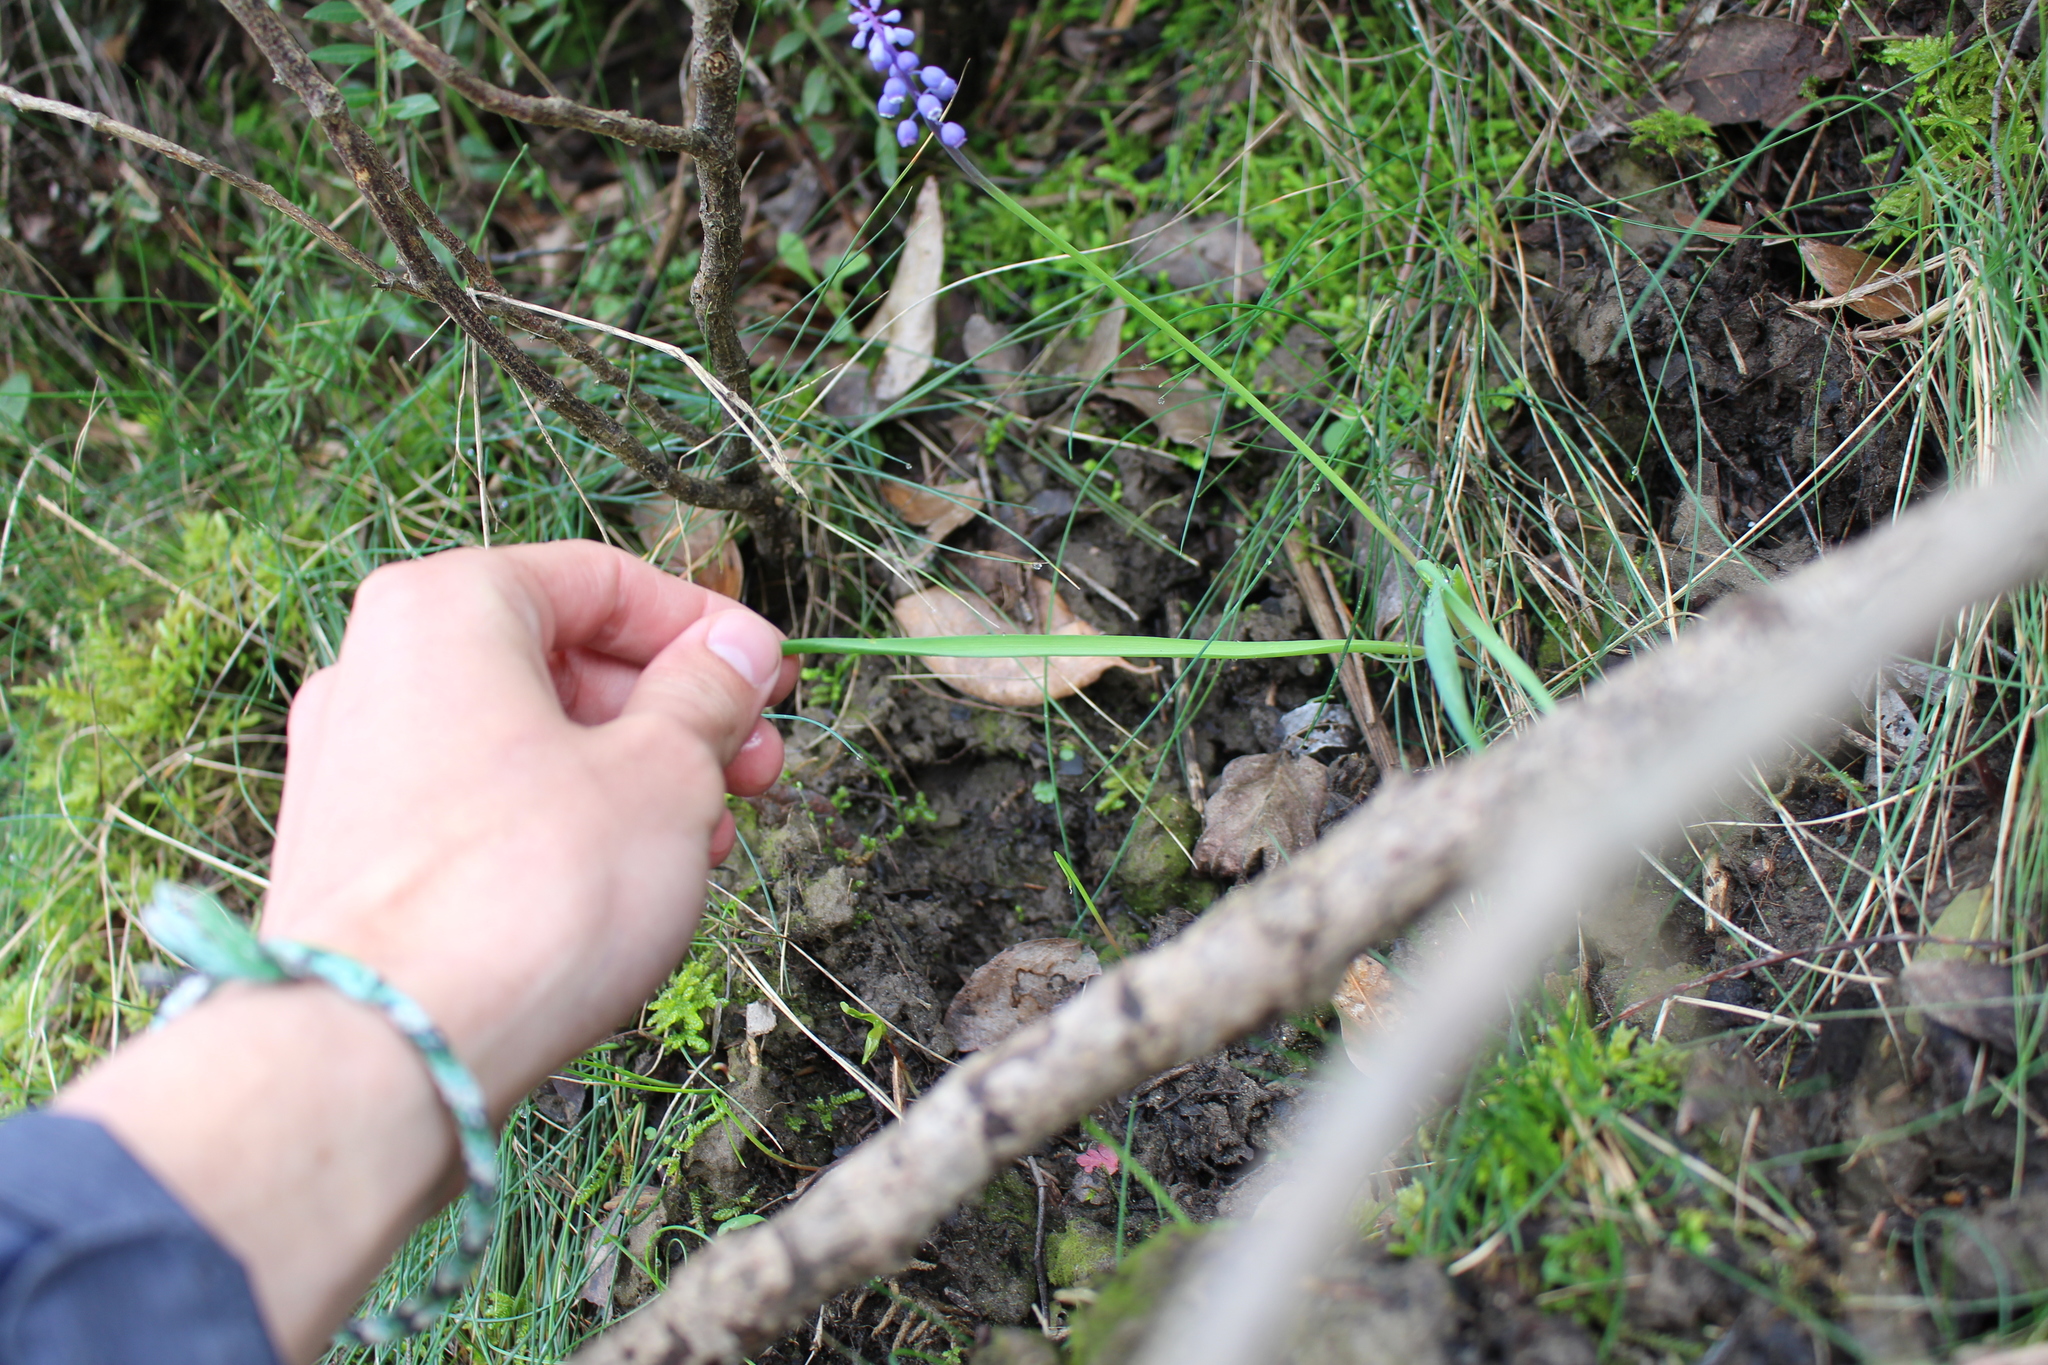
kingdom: Plantae
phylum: Tracheophyta
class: Liliopsida
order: Asparagales
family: Asparagaceae
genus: Muscari
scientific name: Muscari botryoides
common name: Compact grape-hyacinth
